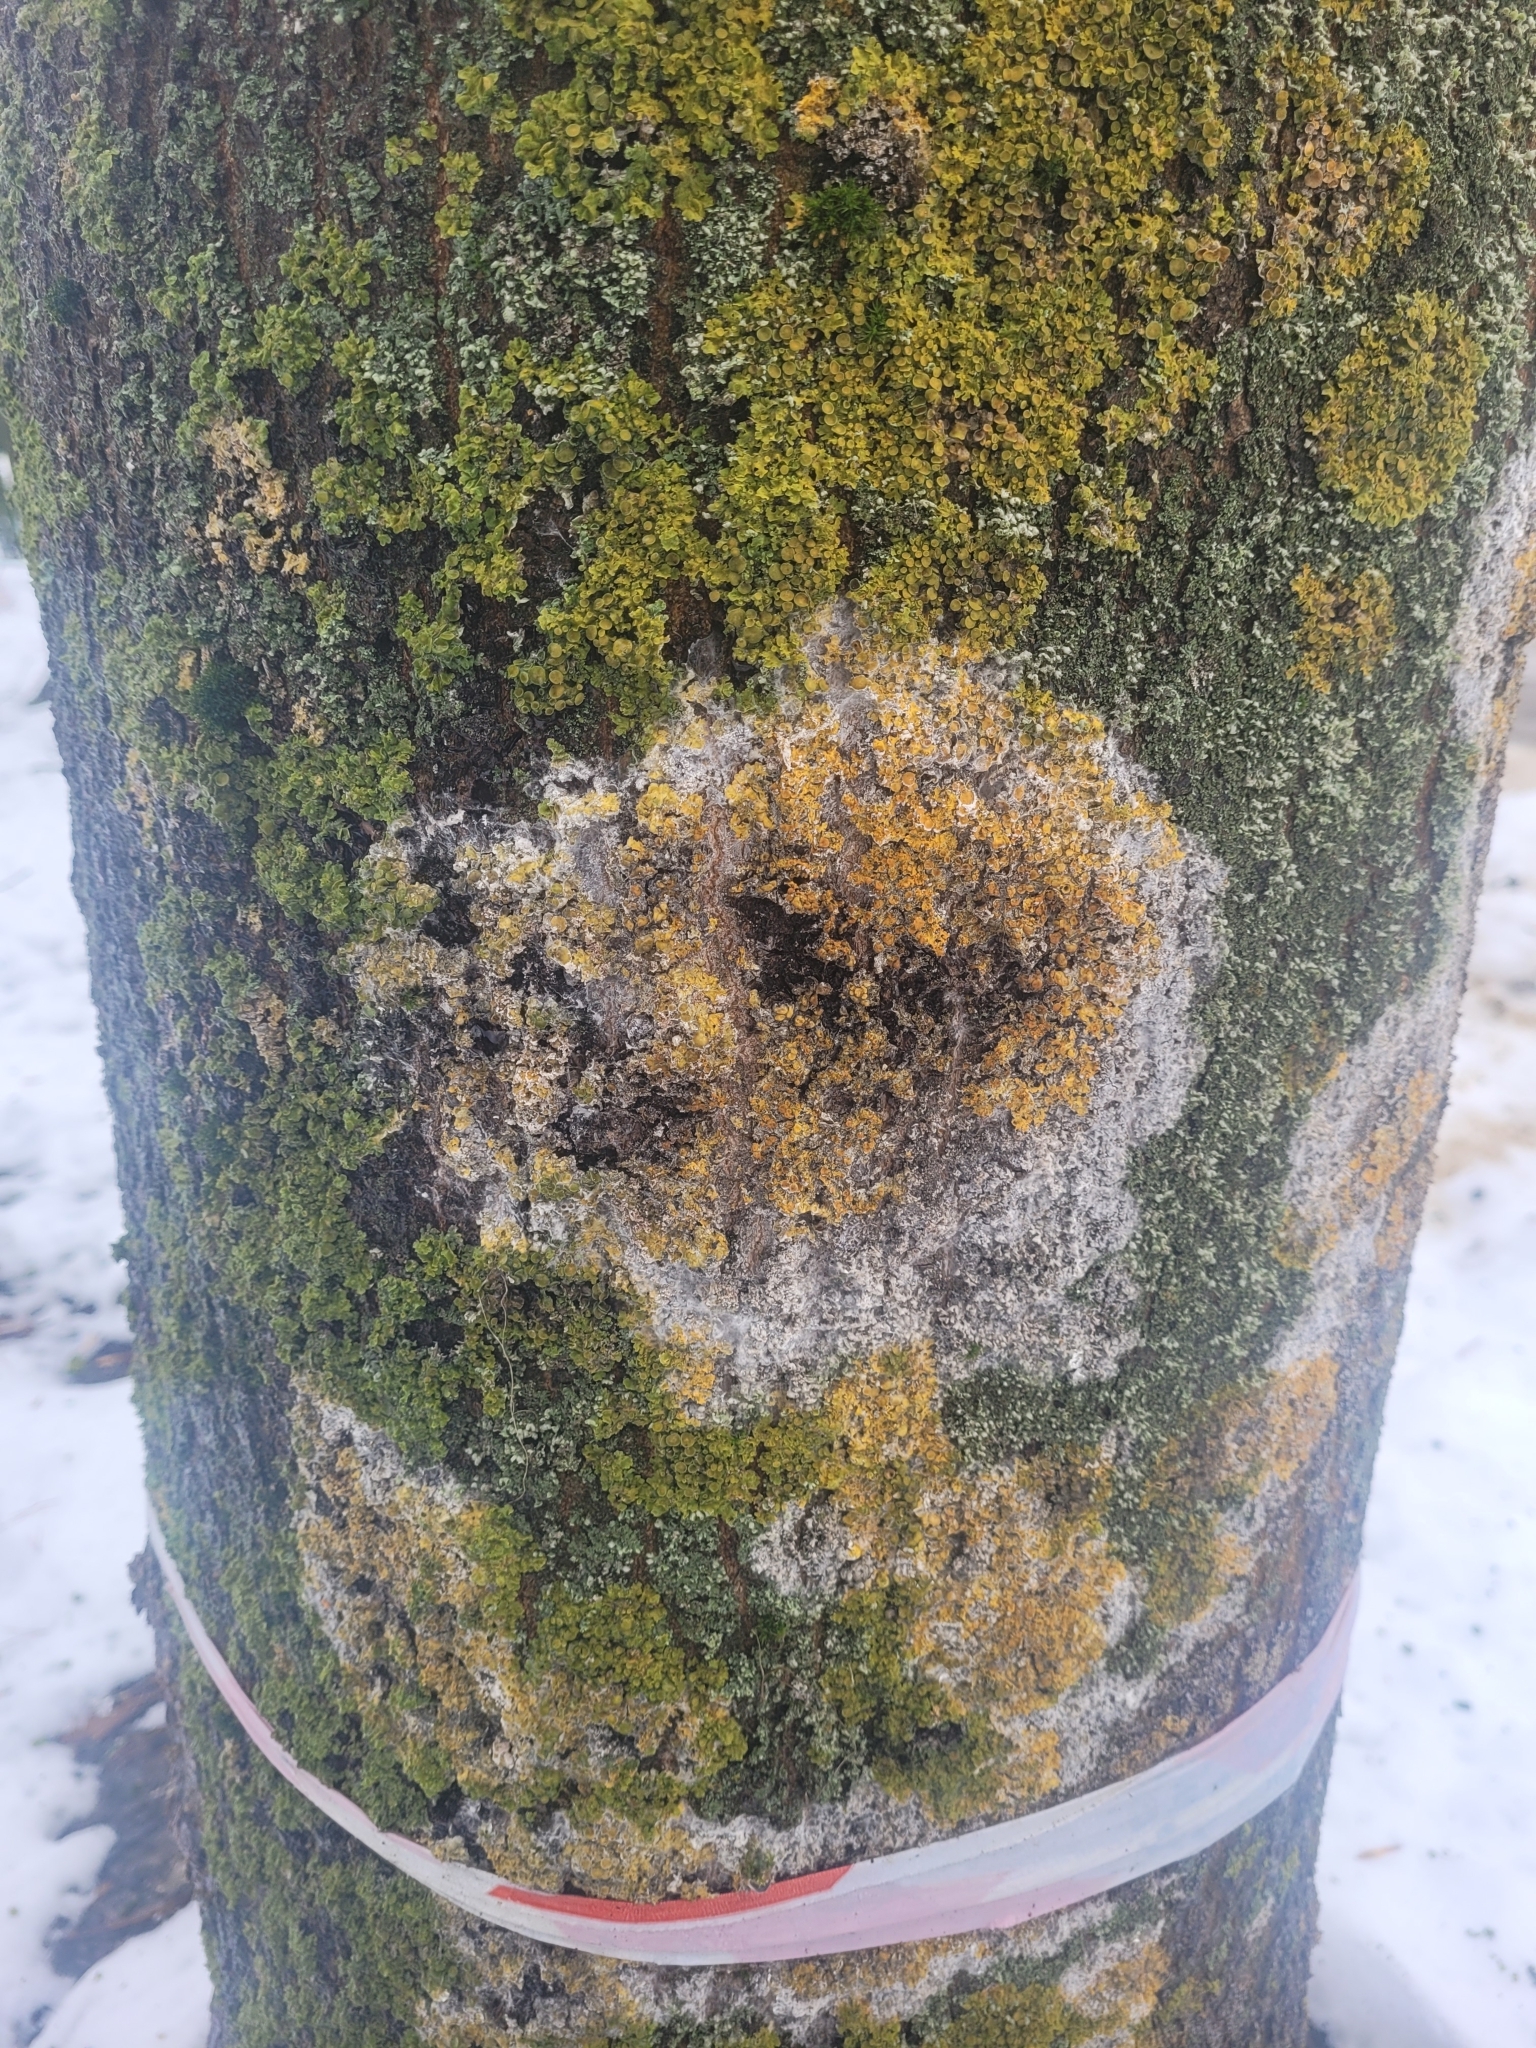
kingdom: Fungi
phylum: Basidiomycota
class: Agaricomycetes
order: Atheliales
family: Atheliaceae
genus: Athelia
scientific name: Athelia arachnoidea
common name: Candelabra duster
